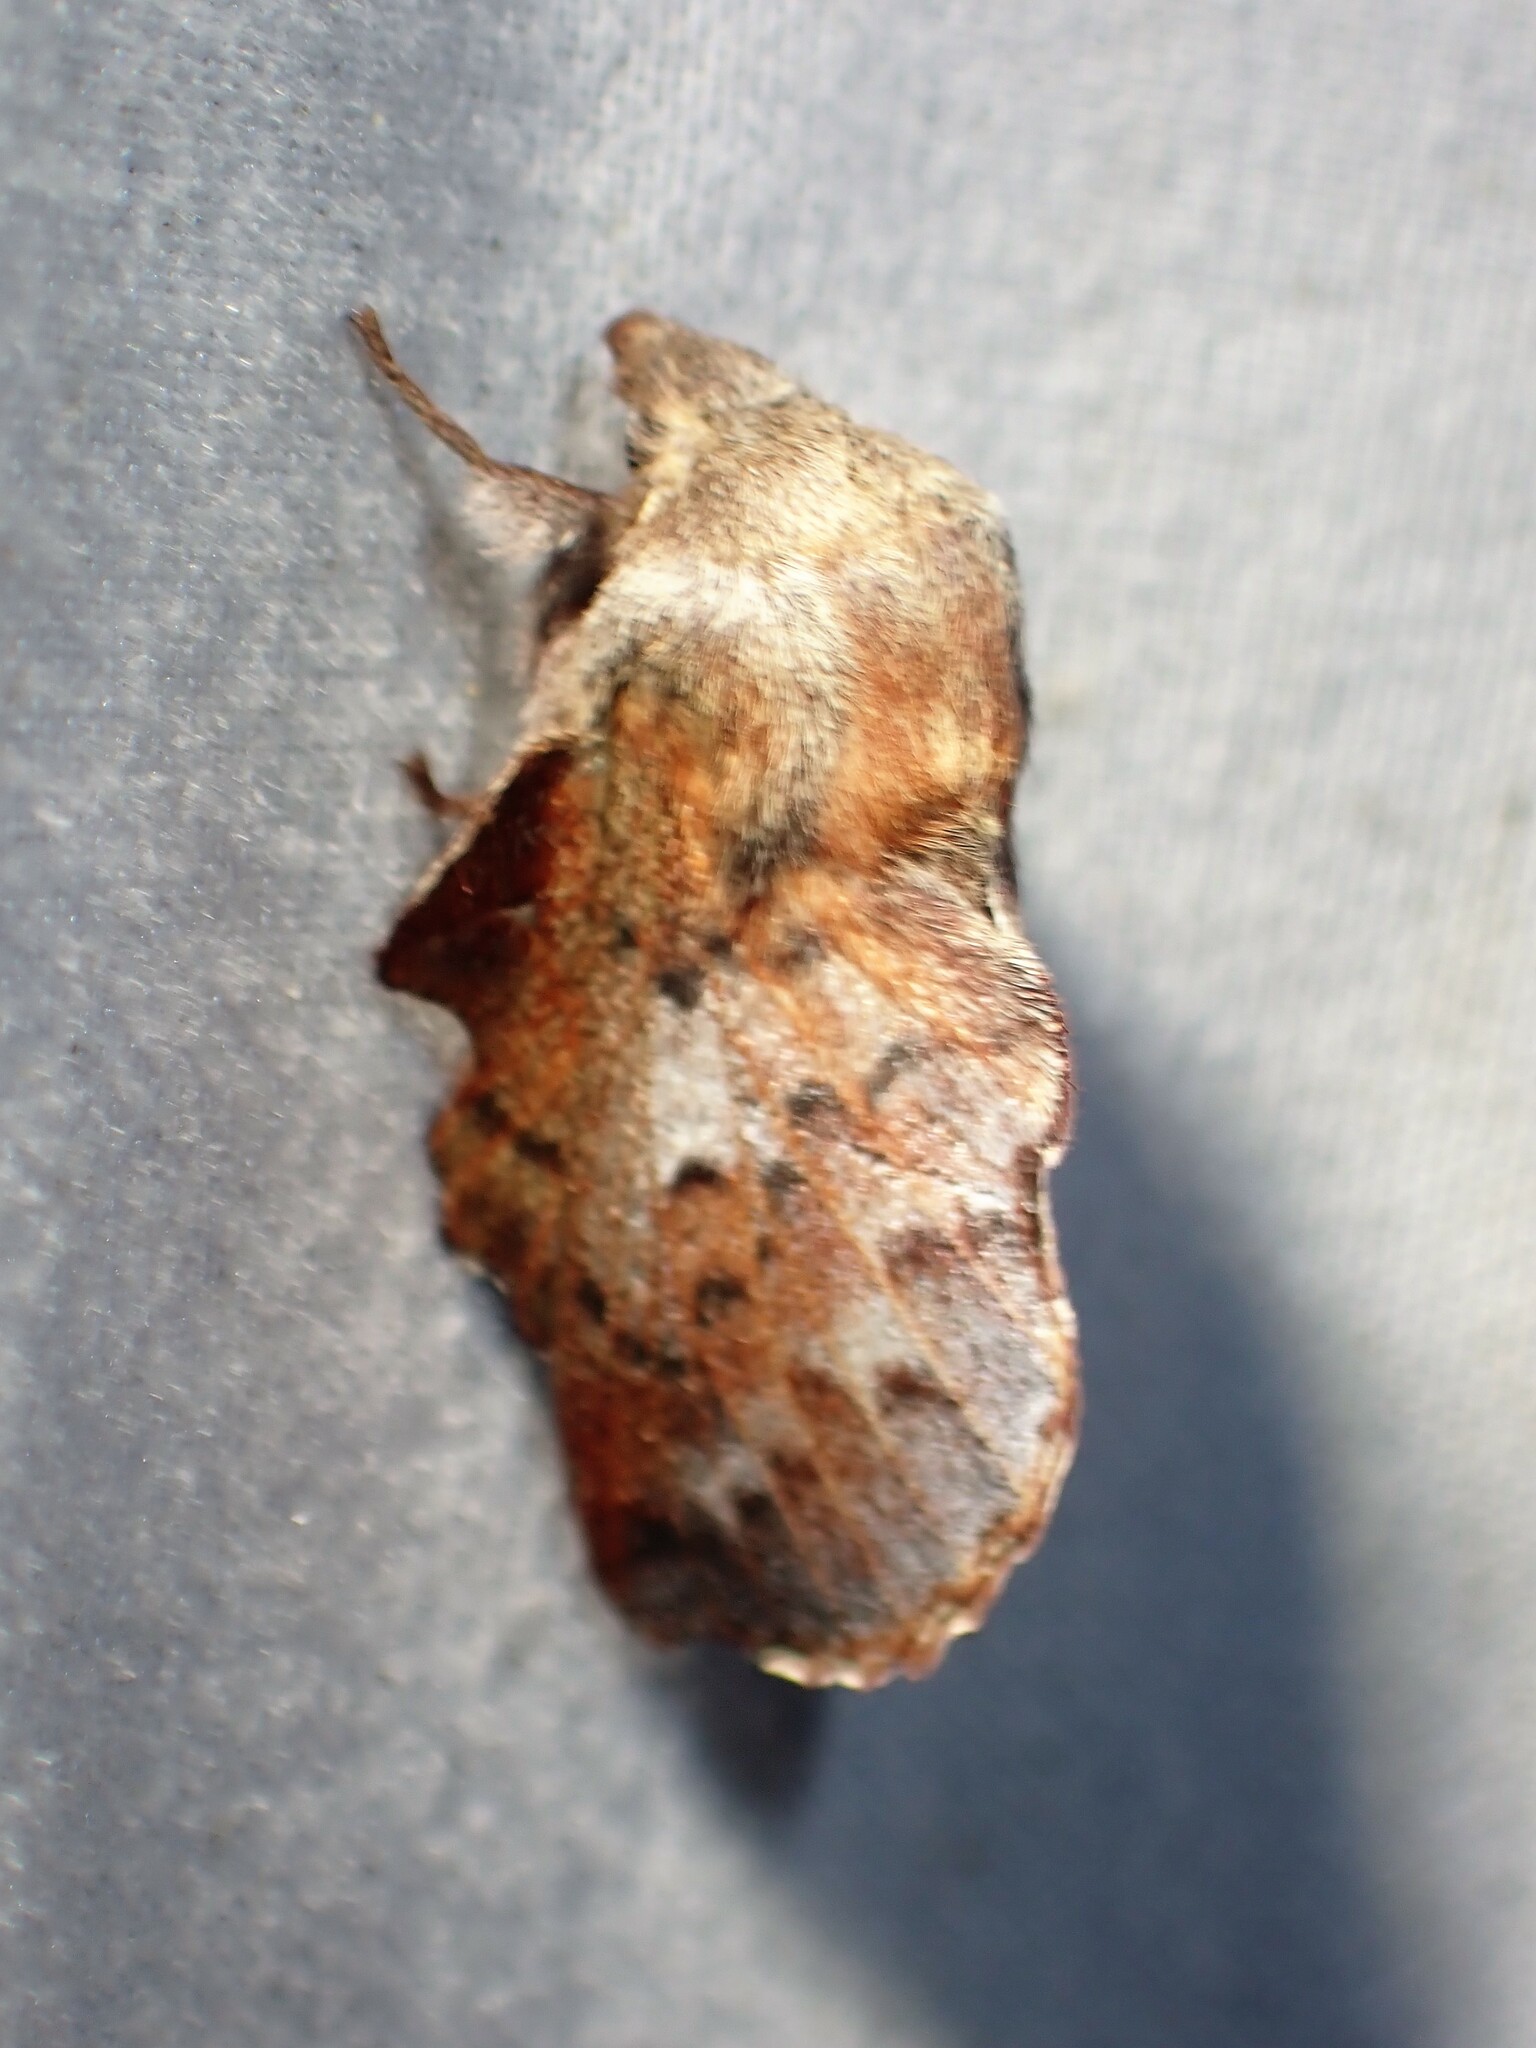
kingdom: Animalia
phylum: Arthropoda
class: Insecta
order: Lepidoptera
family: Lasiocampidae
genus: Phyllodesma
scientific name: Phyllodesma americana
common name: American lappet moth
